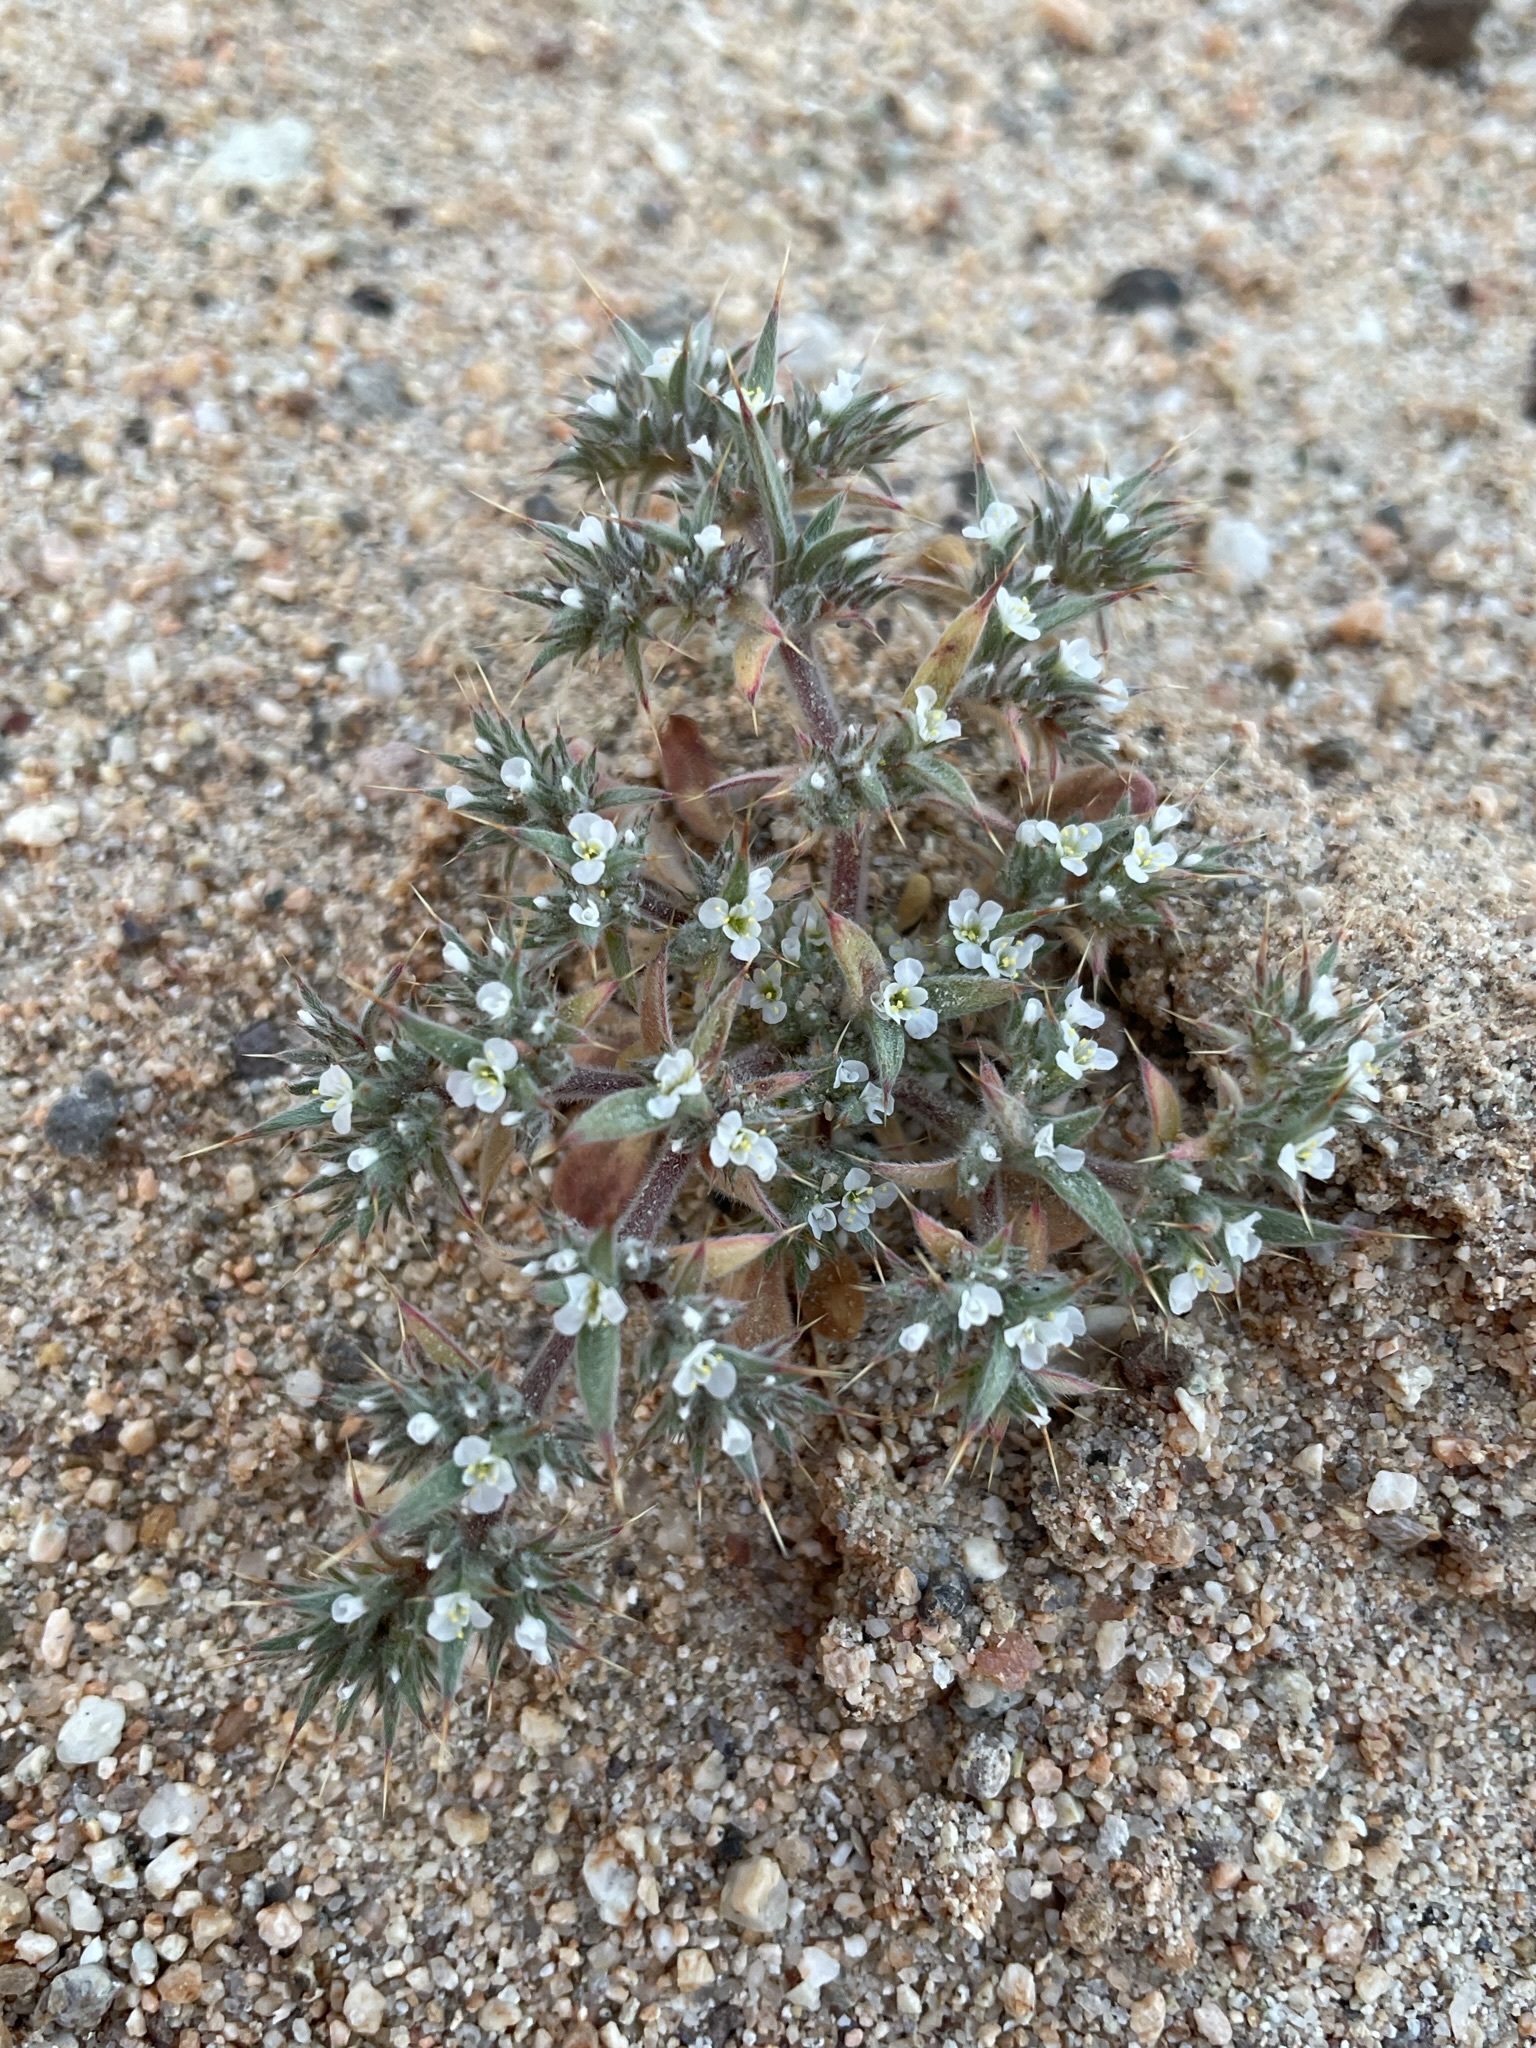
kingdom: Plantae
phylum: Tracheophyta
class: Magnoliopsida
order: Caryophyllales
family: Polygonaceae
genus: Chorizanthe
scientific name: Chorizanthe spinosa
